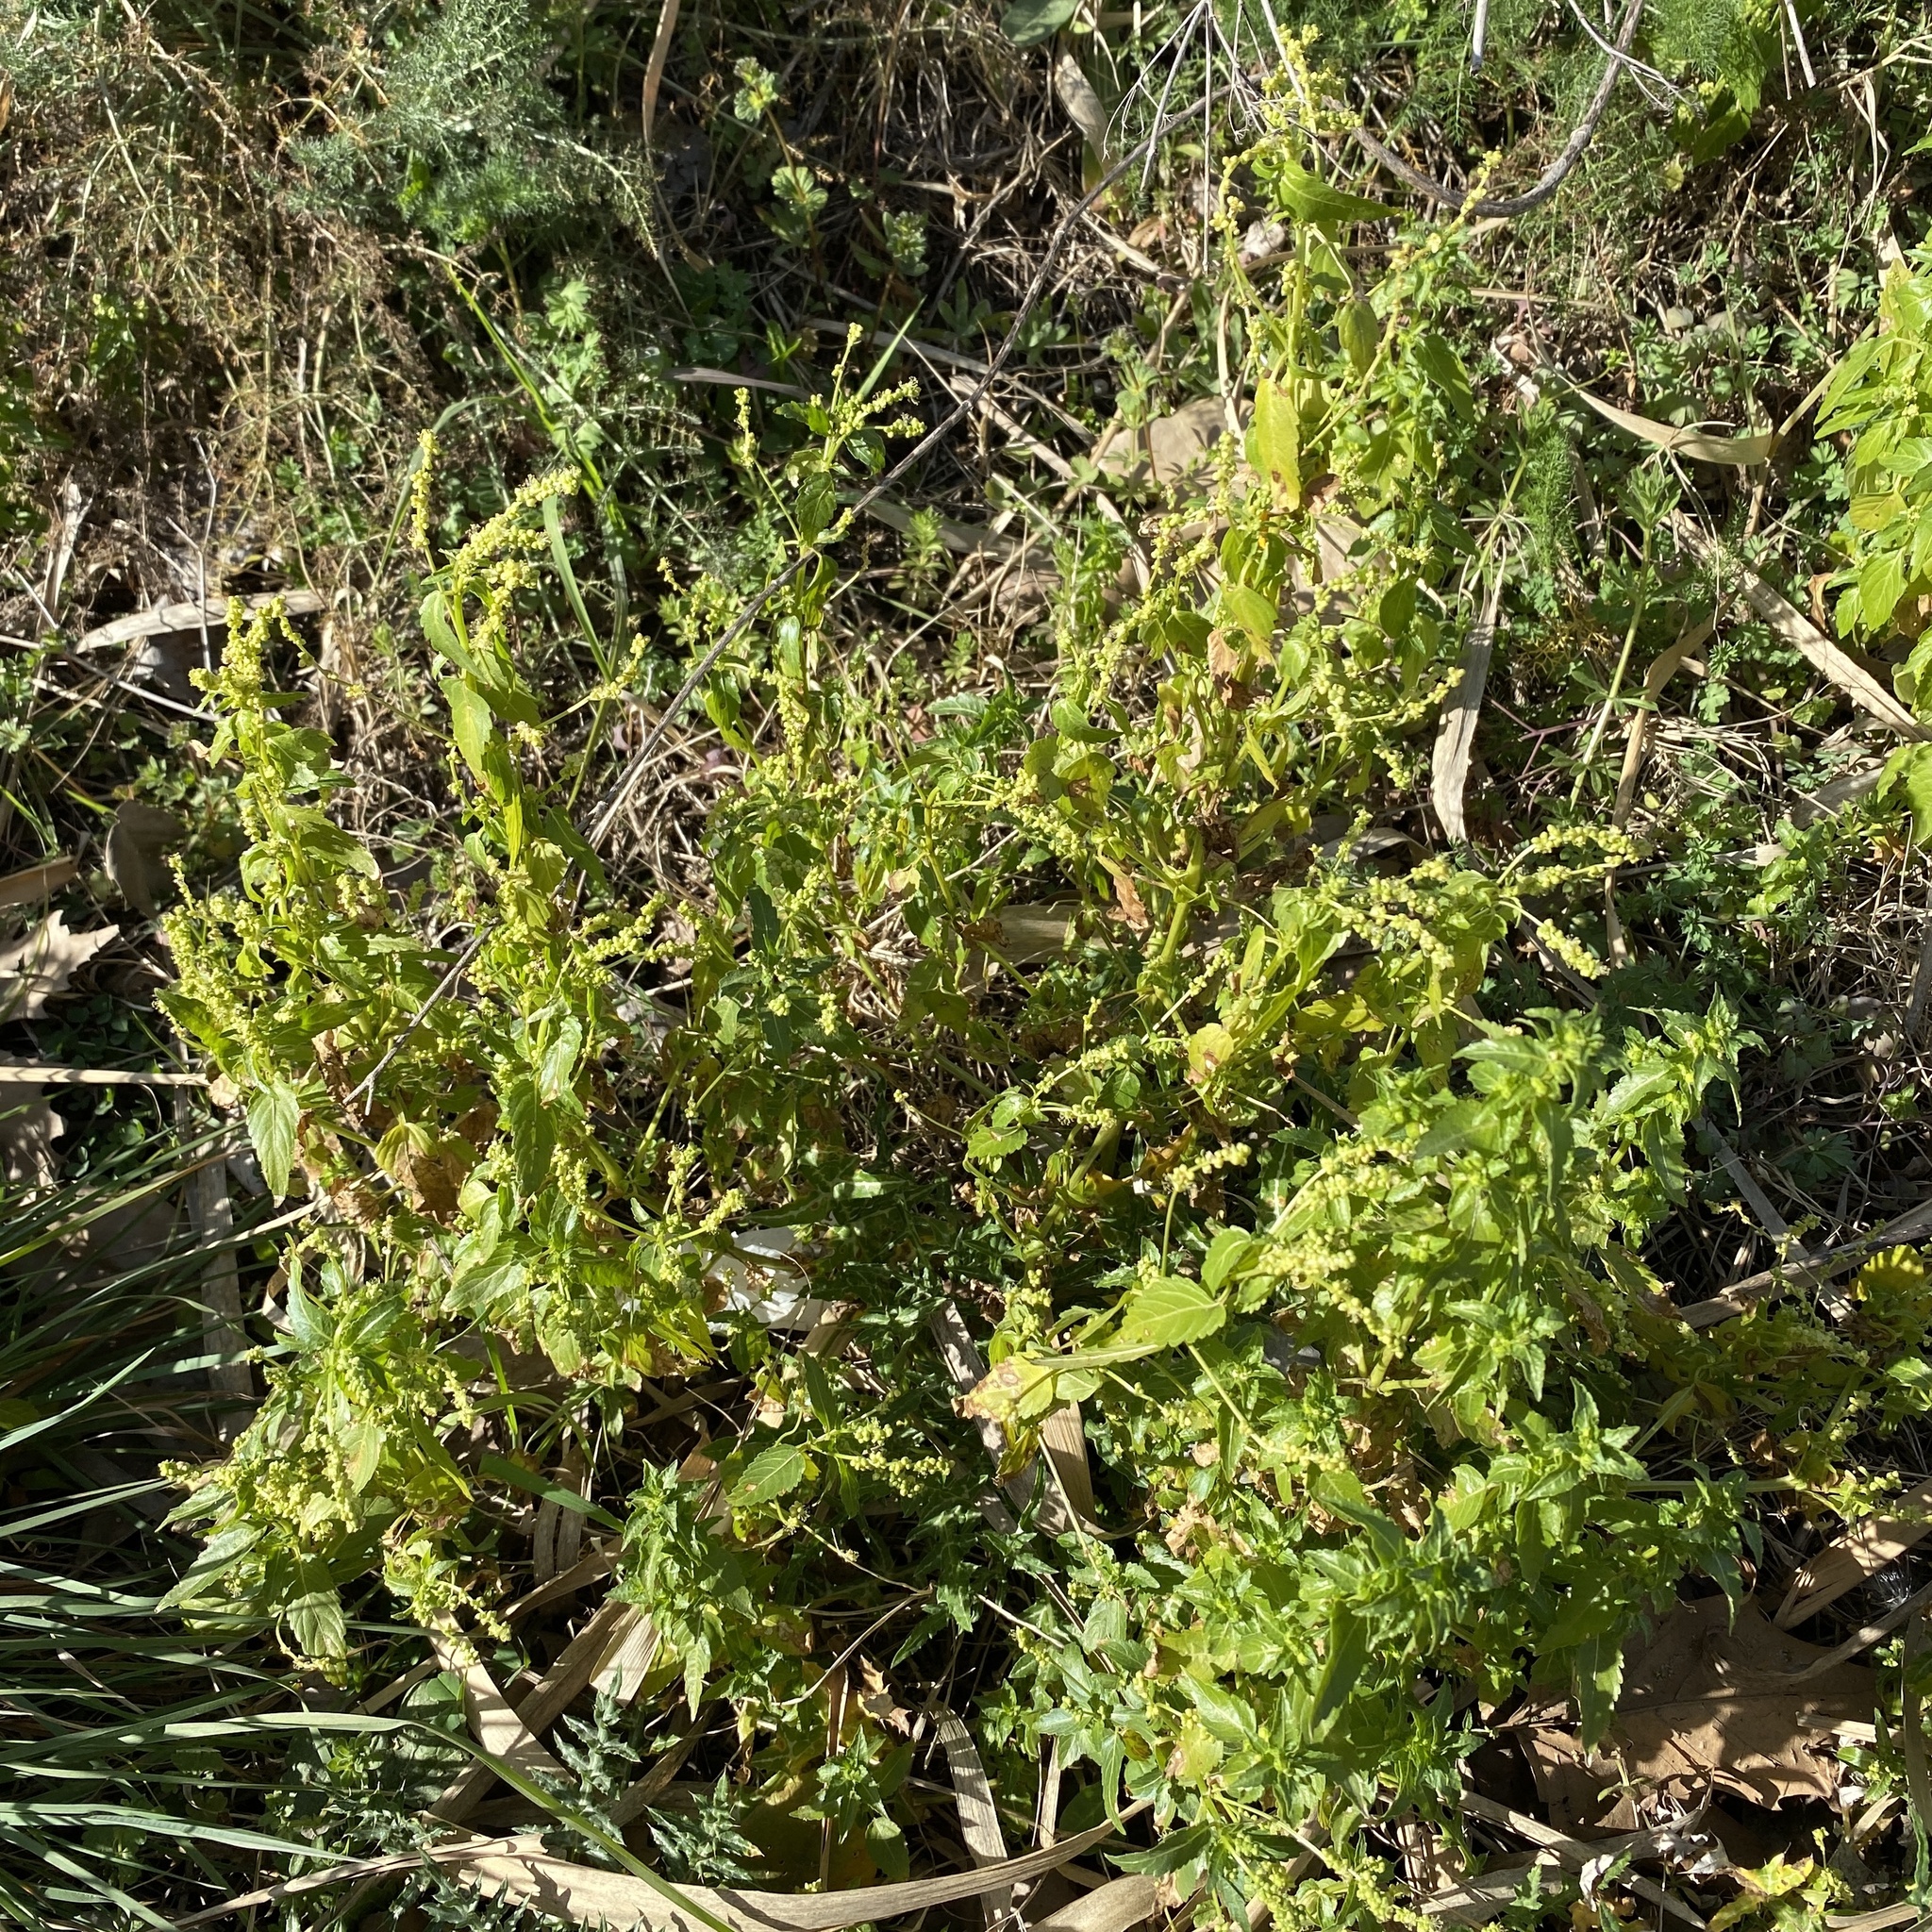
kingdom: Plantae
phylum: Tracheophyta
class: Magnoliopsida
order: Malpighiales
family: Euphorbiaceae
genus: Mercurialis
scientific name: Mercurialis annua
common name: Annual mercury
